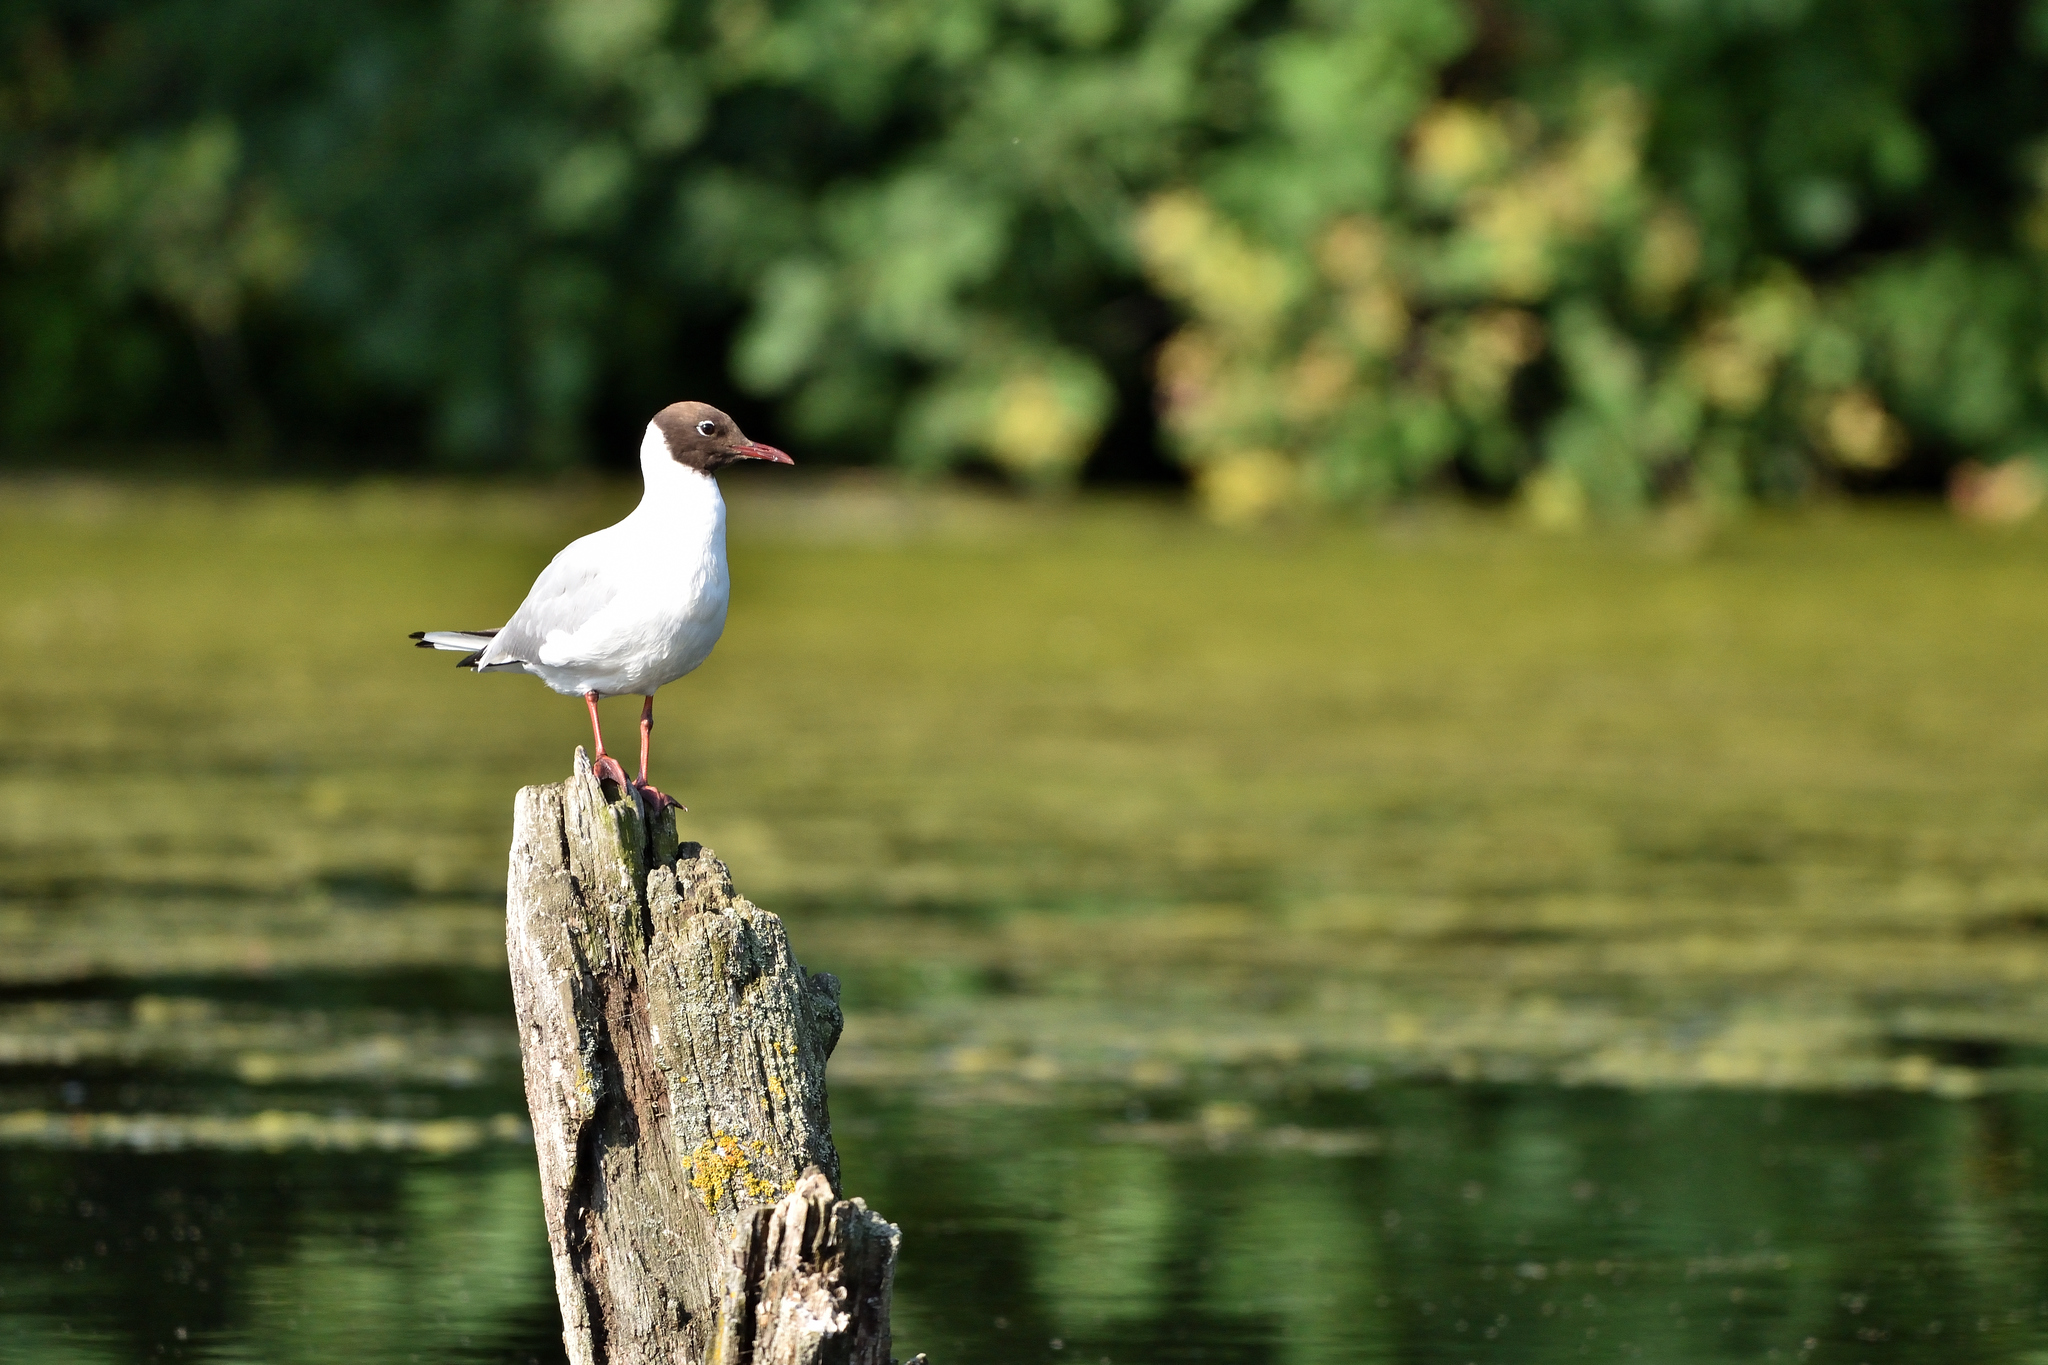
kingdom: Animalia
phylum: Chordata
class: Aves
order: Charadriiformes
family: Laridae
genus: Chroicocephalus
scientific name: Chroicocephalus ridibundus
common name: Black-headed gull
